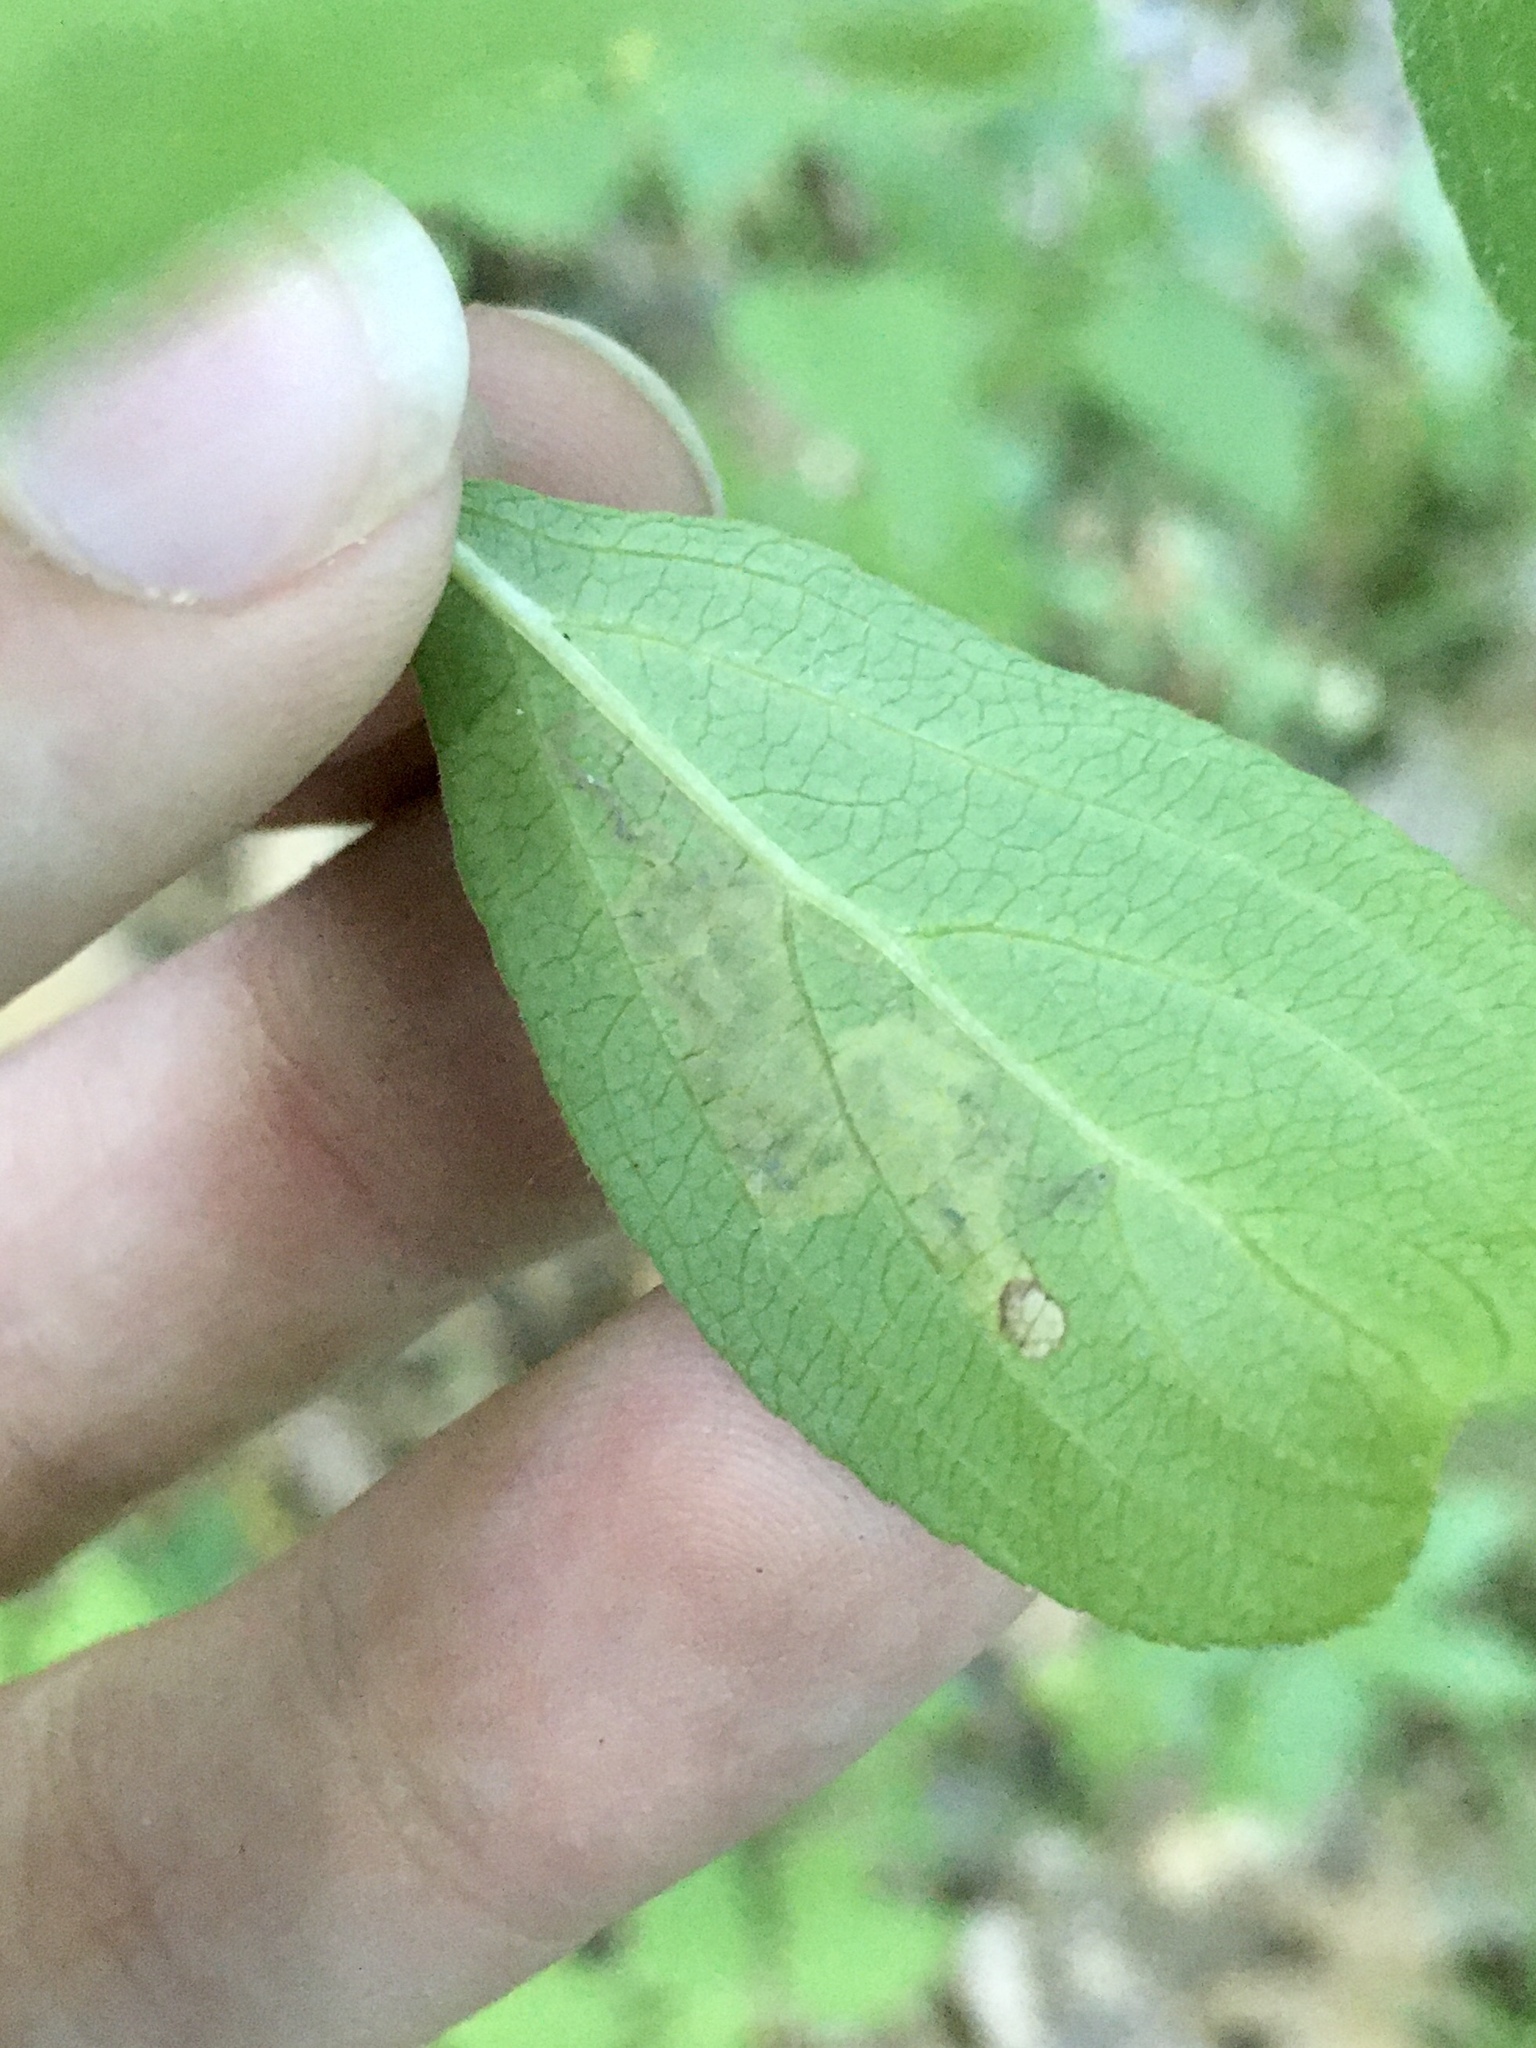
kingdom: Animalia
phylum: Arthropoda
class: Insecta
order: Lepidoptera
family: Nepticulidae
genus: Stigmella
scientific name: Stigmella rhamnicola
